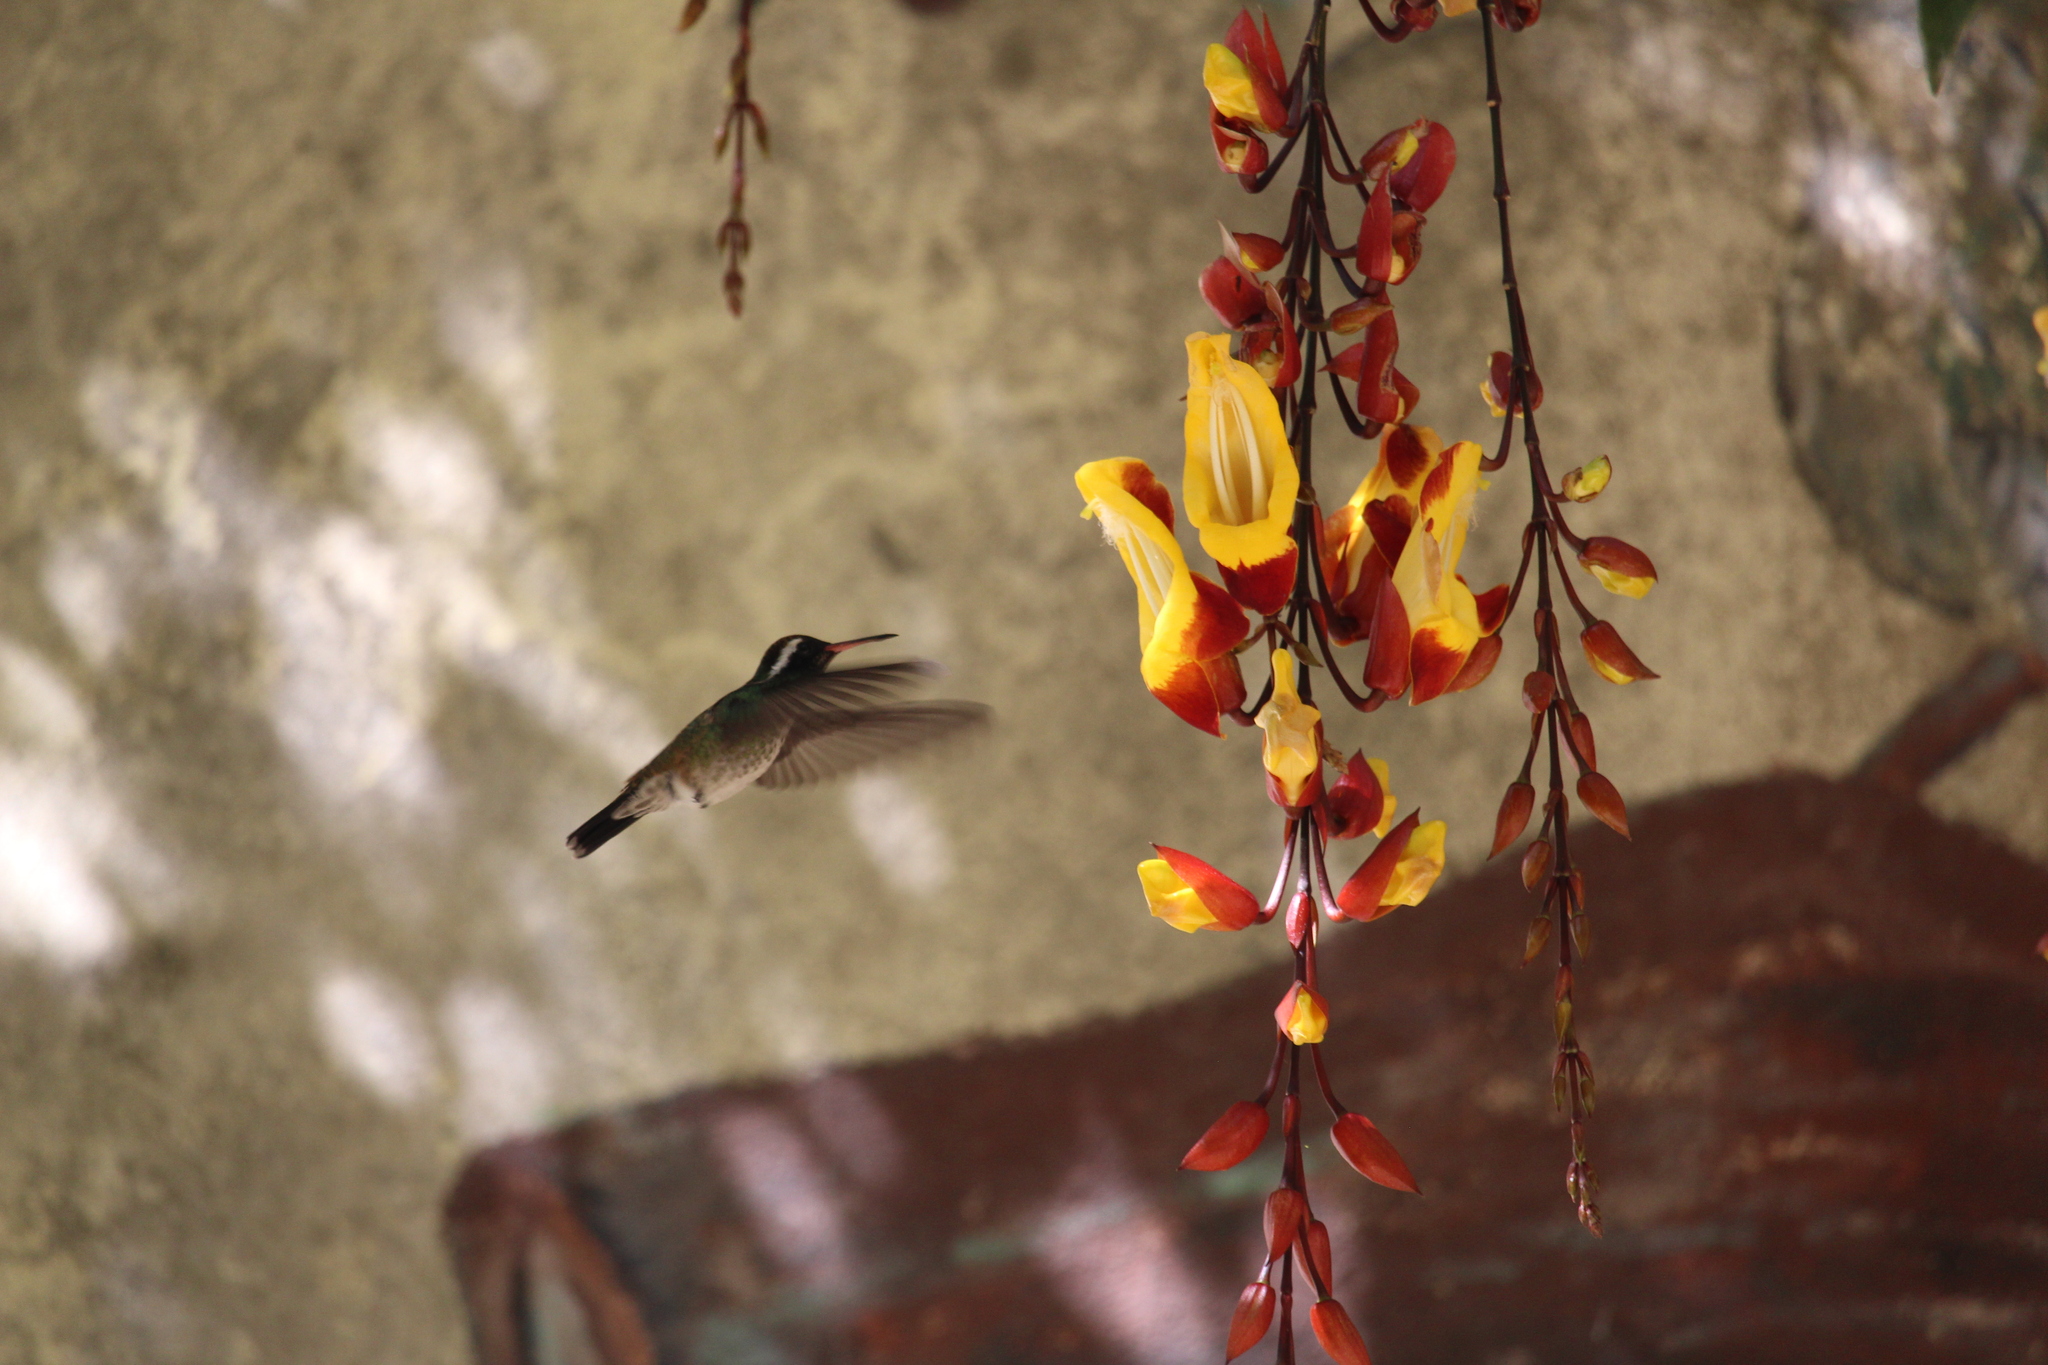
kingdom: Animalia
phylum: Chordata
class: Aves
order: Apodiformes
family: Trochilidae
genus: Basilinna
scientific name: Basilinna leucotis
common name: White-eared hummingbird
